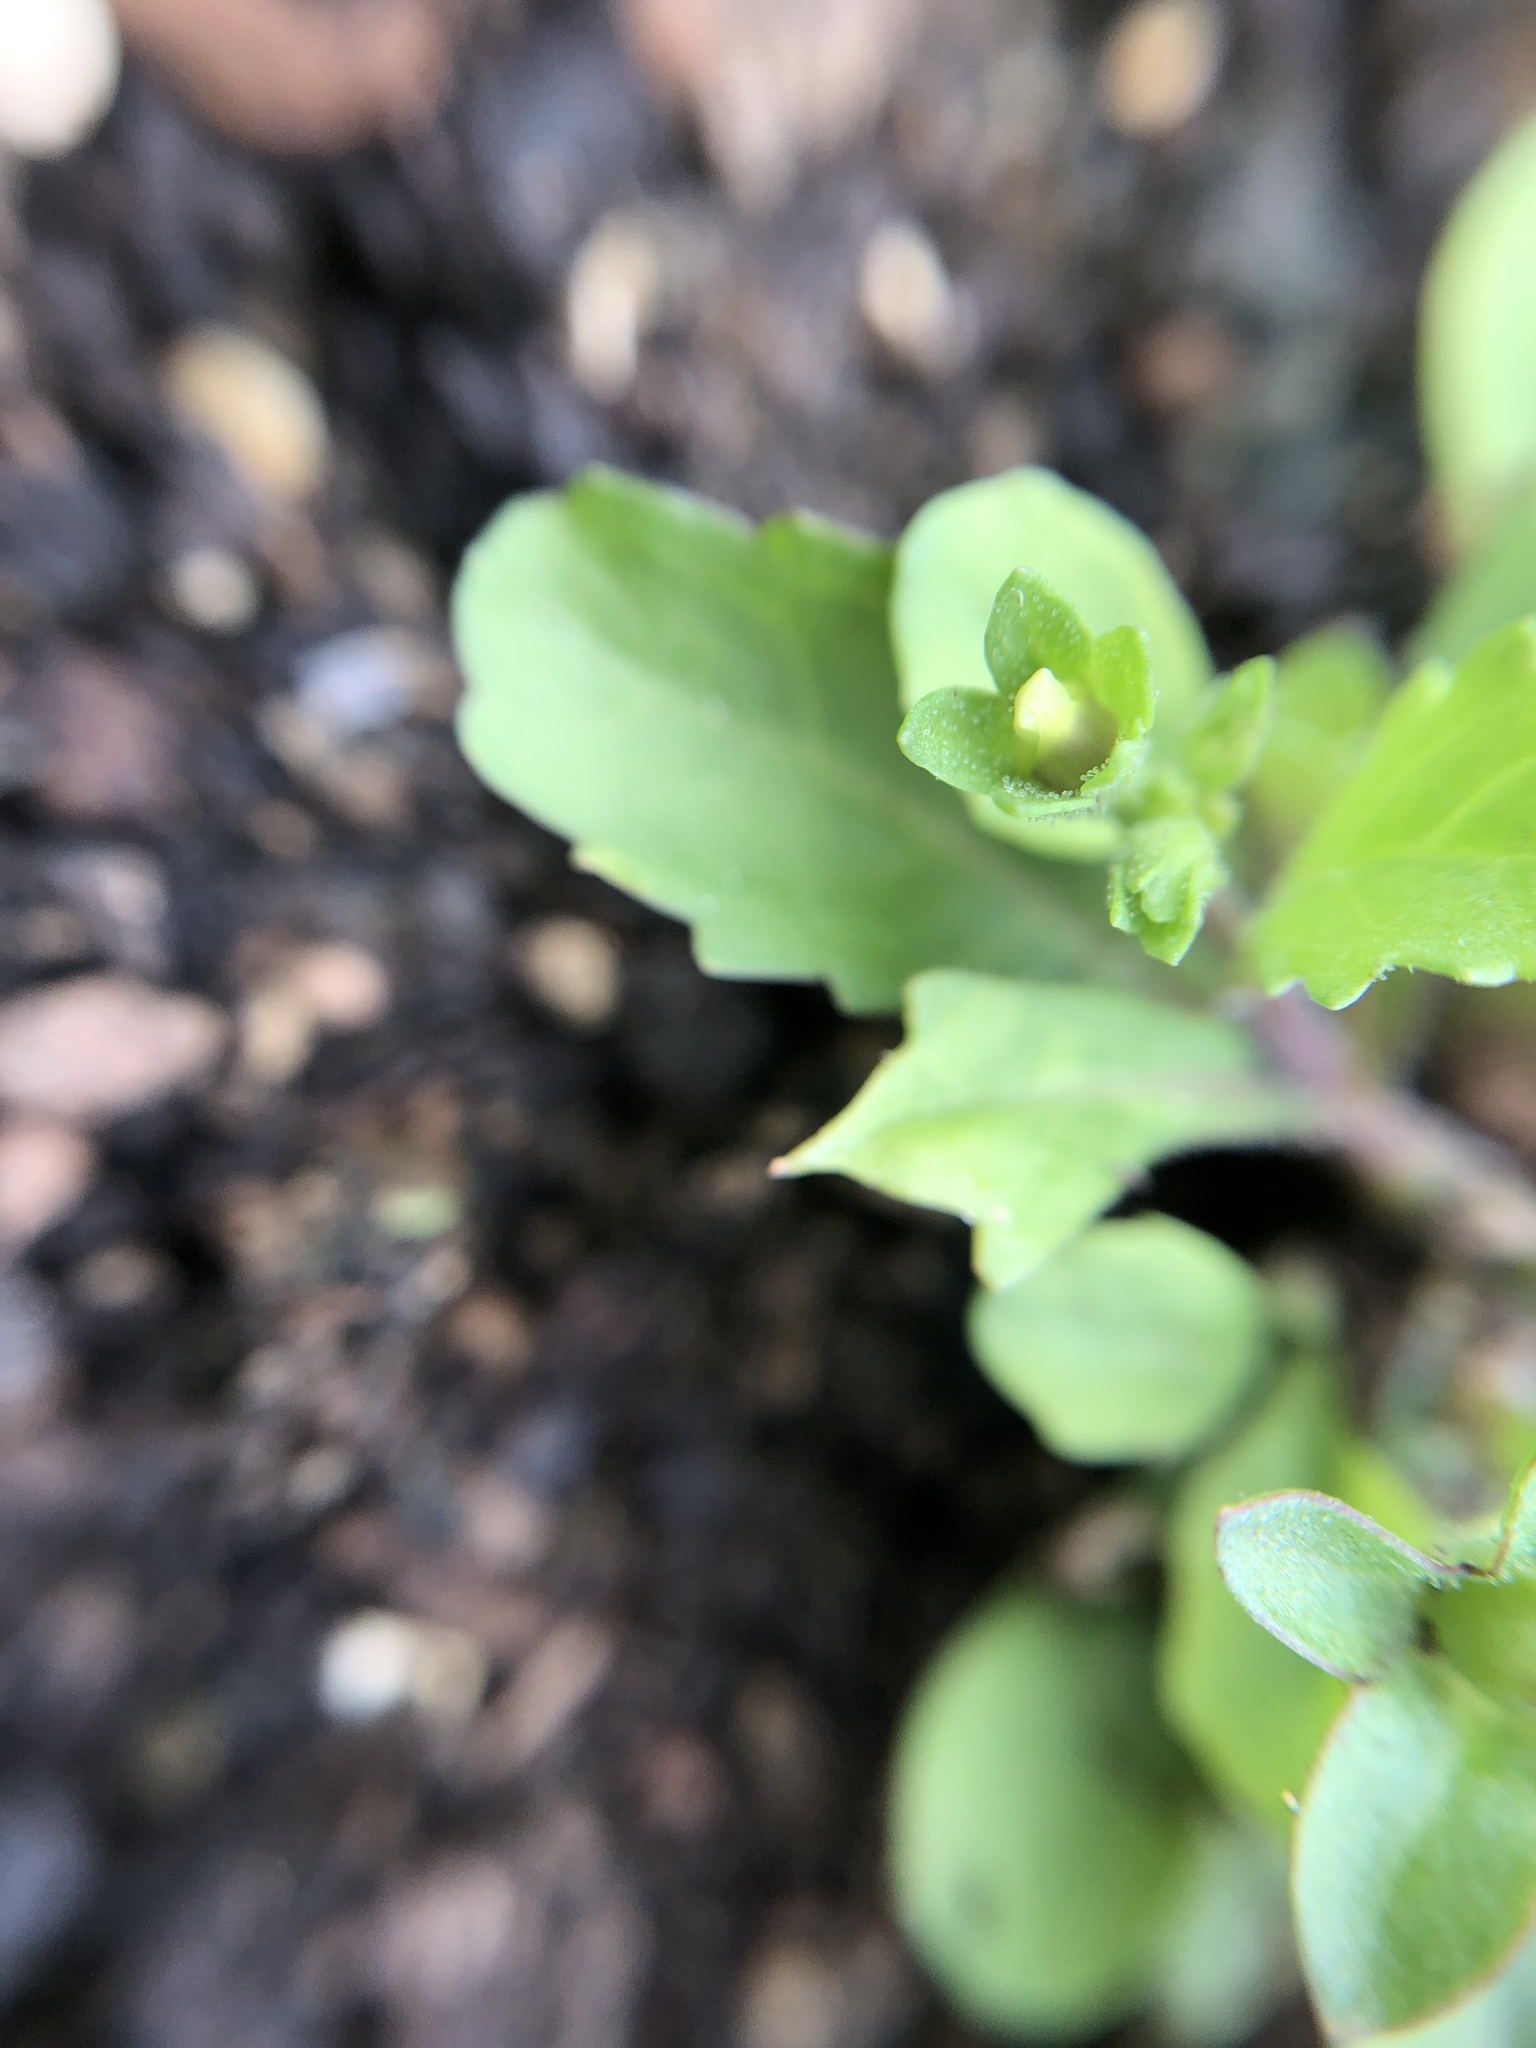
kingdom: Plantae
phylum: Tracheophyta
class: Magnoliopsida
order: Lamiales
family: Mazaceae
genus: Mazus
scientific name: Mazus pumilus
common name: Japanese mazus
